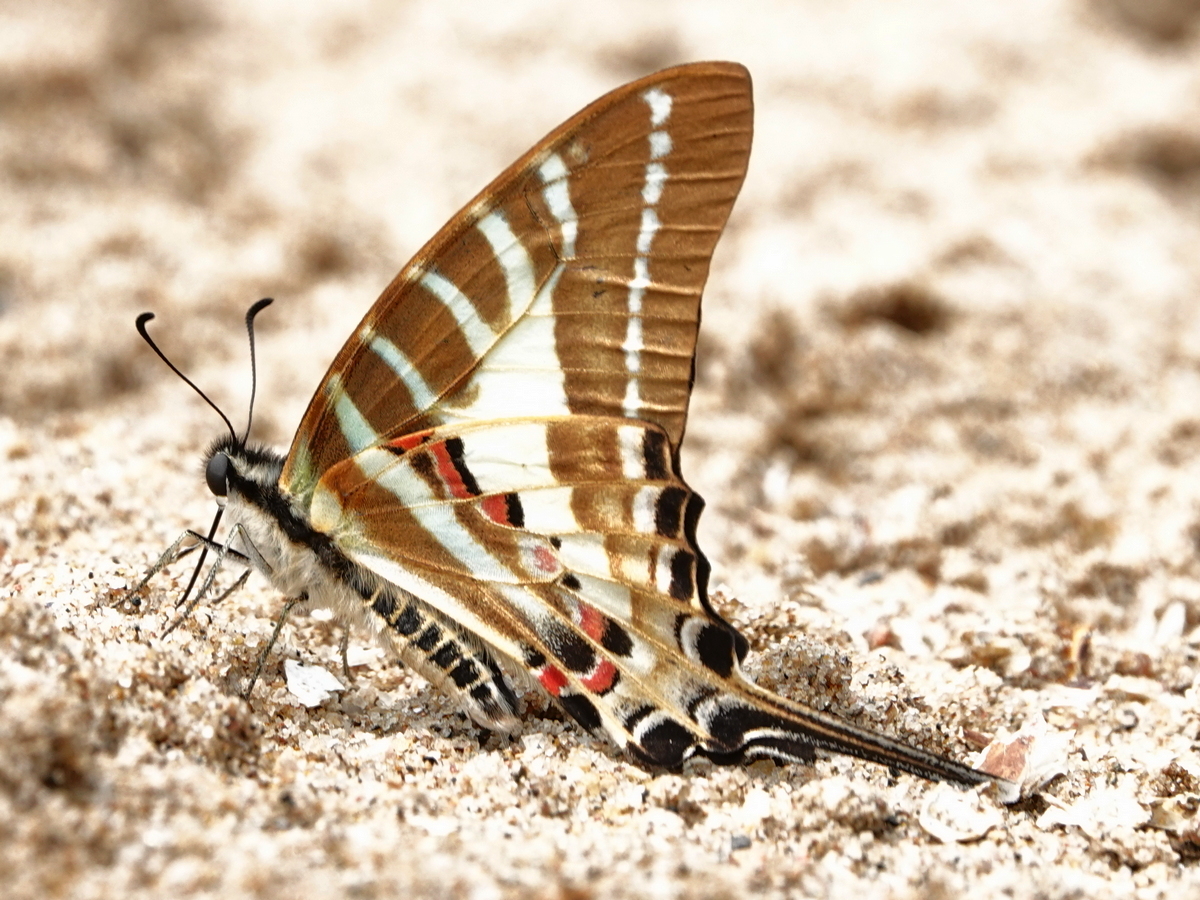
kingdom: Animalia
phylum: Arthropoda
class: Insecta
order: Lepidoptera
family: Papilionidae
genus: Graphium
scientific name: Graphium aristeus
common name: Chain swordtail
